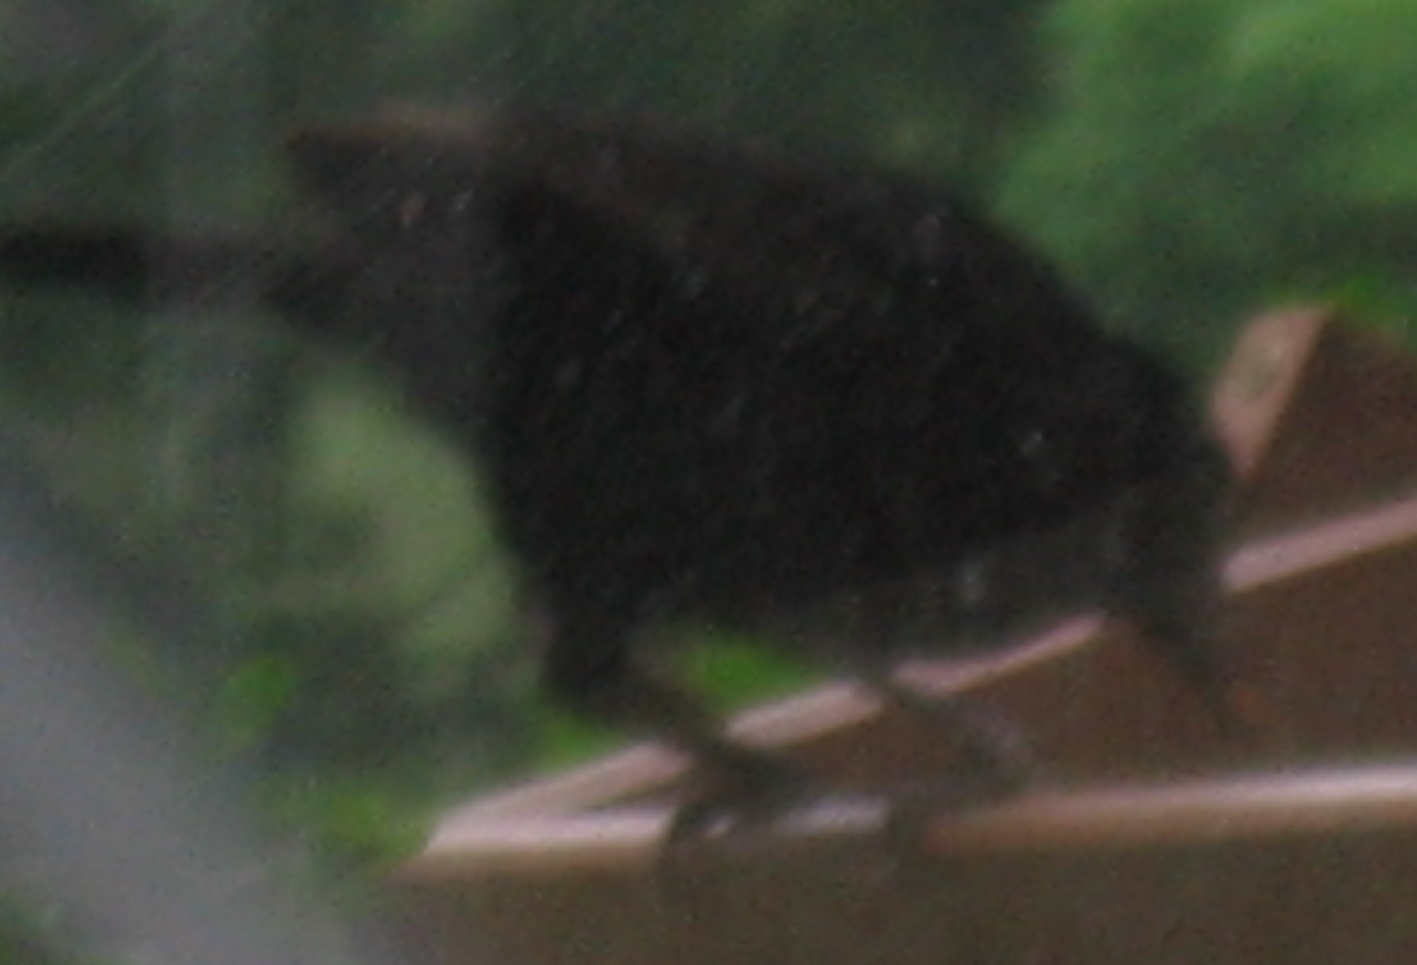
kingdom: Animalia
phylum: Chordata
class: Aves
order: Passeriformes
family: Icteridae
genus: Quiscalus
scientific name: Quiscalus quiscula
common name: Common grackle
